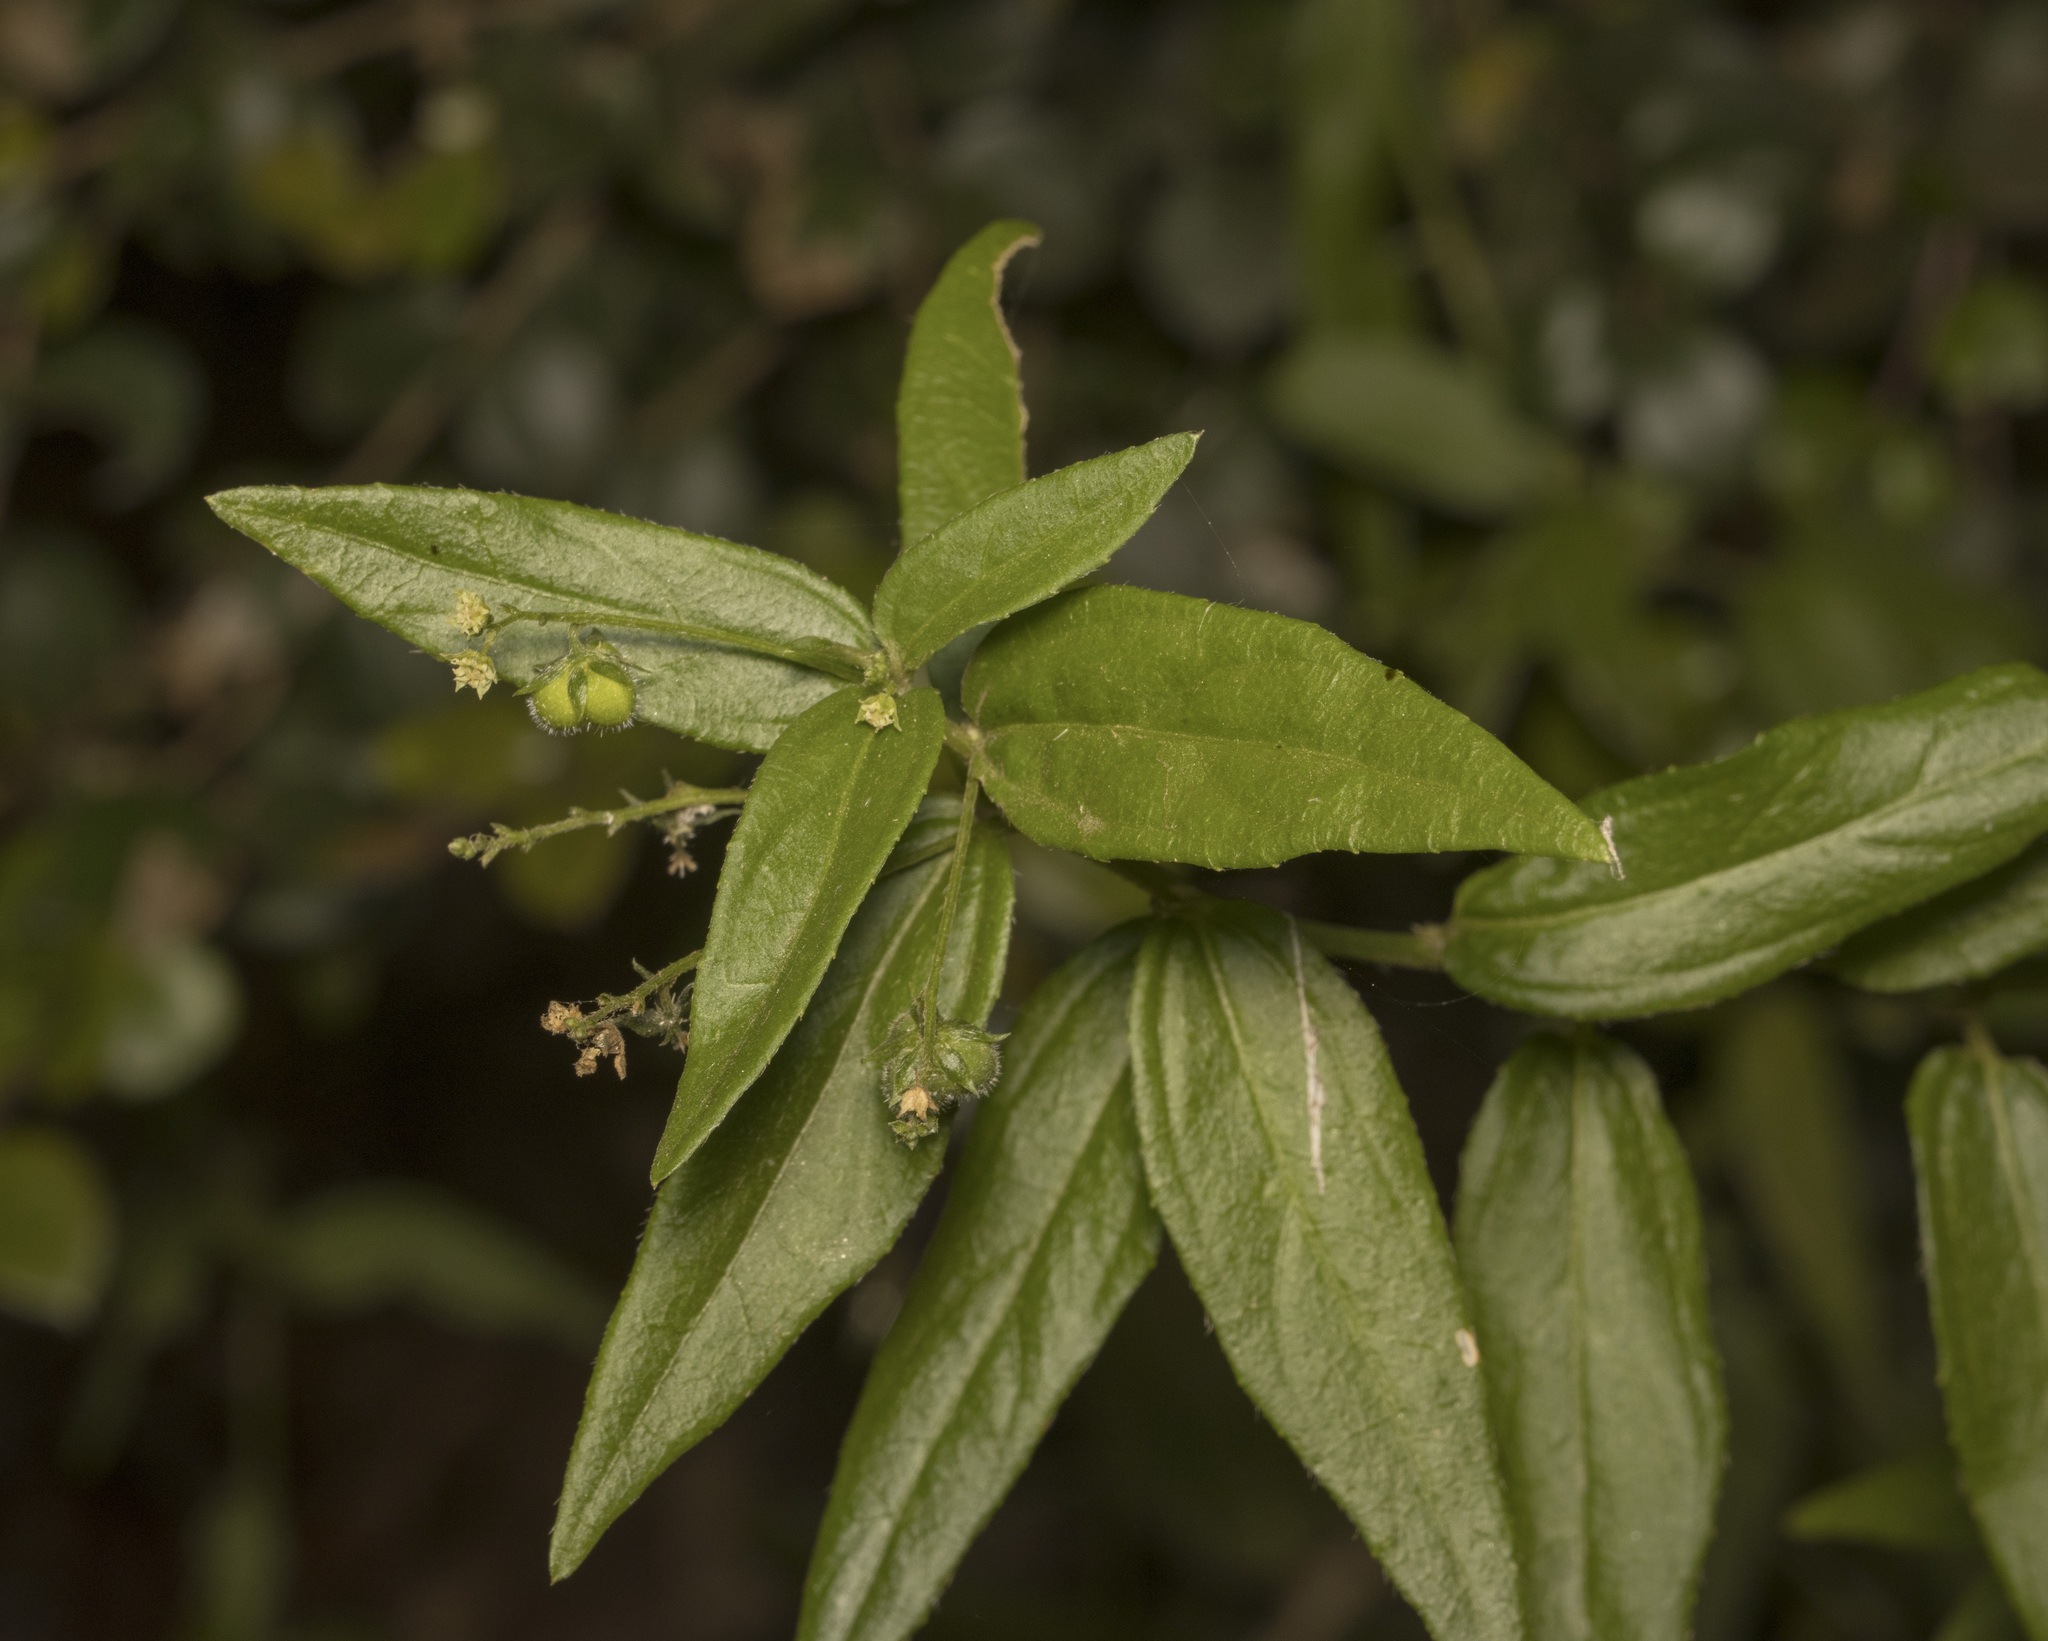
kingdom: Plantae
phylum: Tracheophyta
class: Magnoliopsida
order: Malpighiales
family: Euphorbiaceae
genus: Chiropetalum
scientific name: Chiropetalum tricuspidatum
